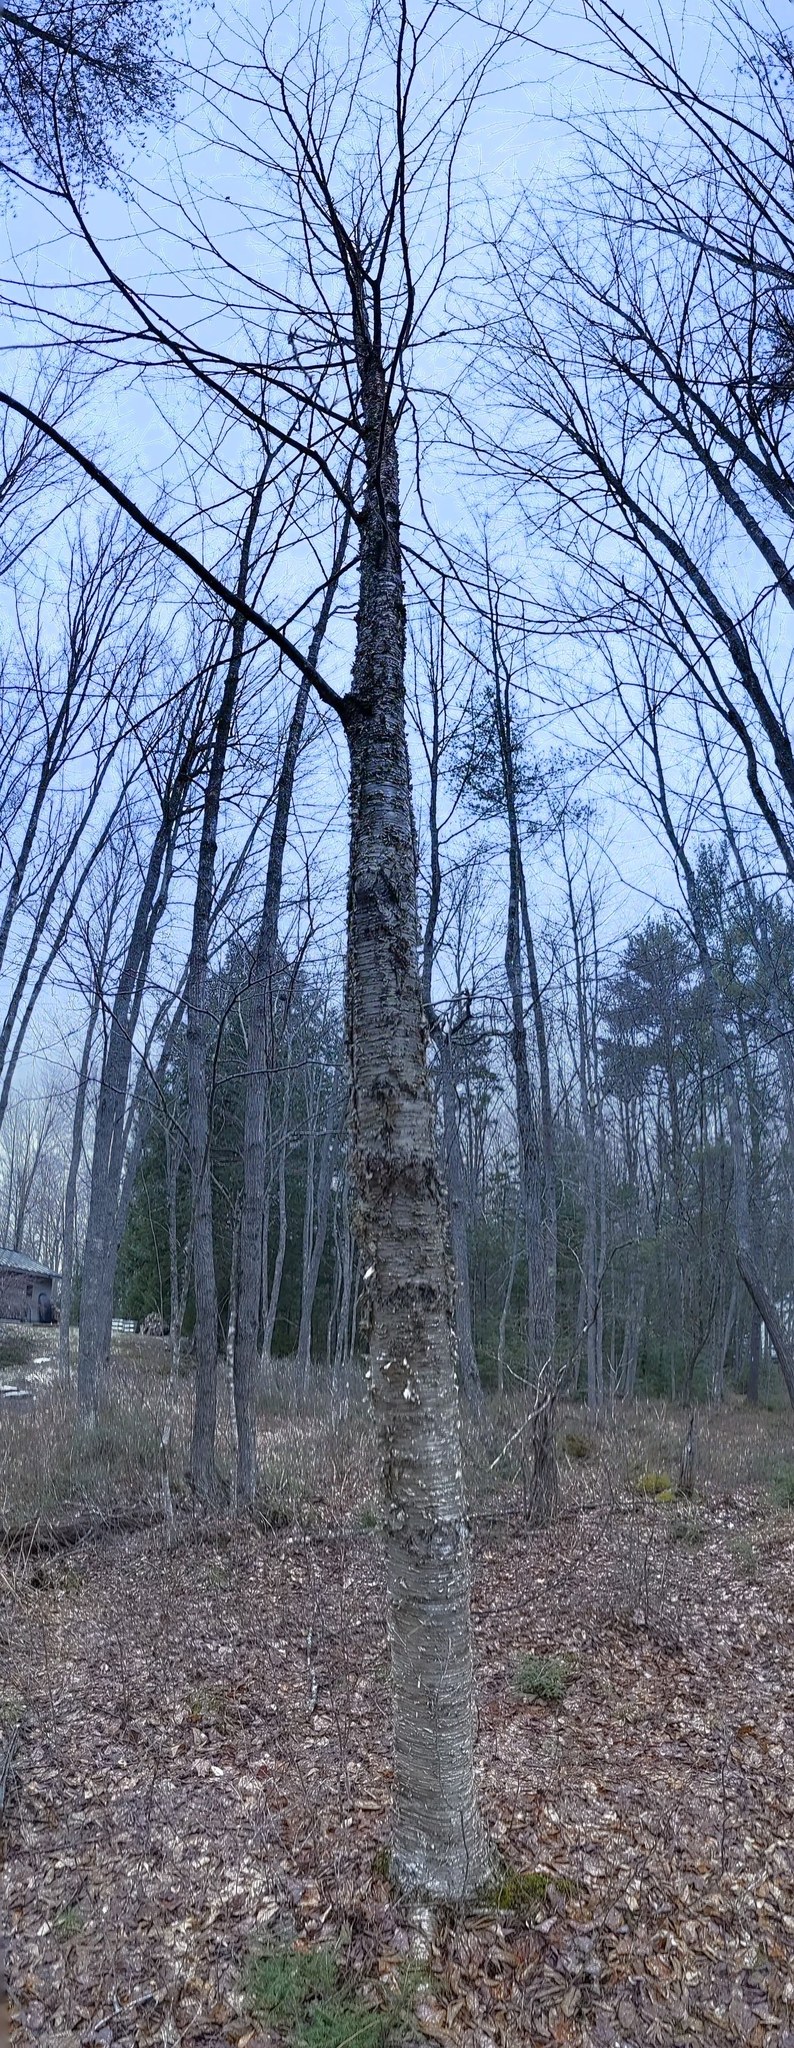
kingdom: Plantae
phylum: Tracheophyta
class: Magnoliopsida
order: Fagales
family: Betulaceae
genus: Betula
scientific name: Betula alleghaniensis
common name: Yellow birch
